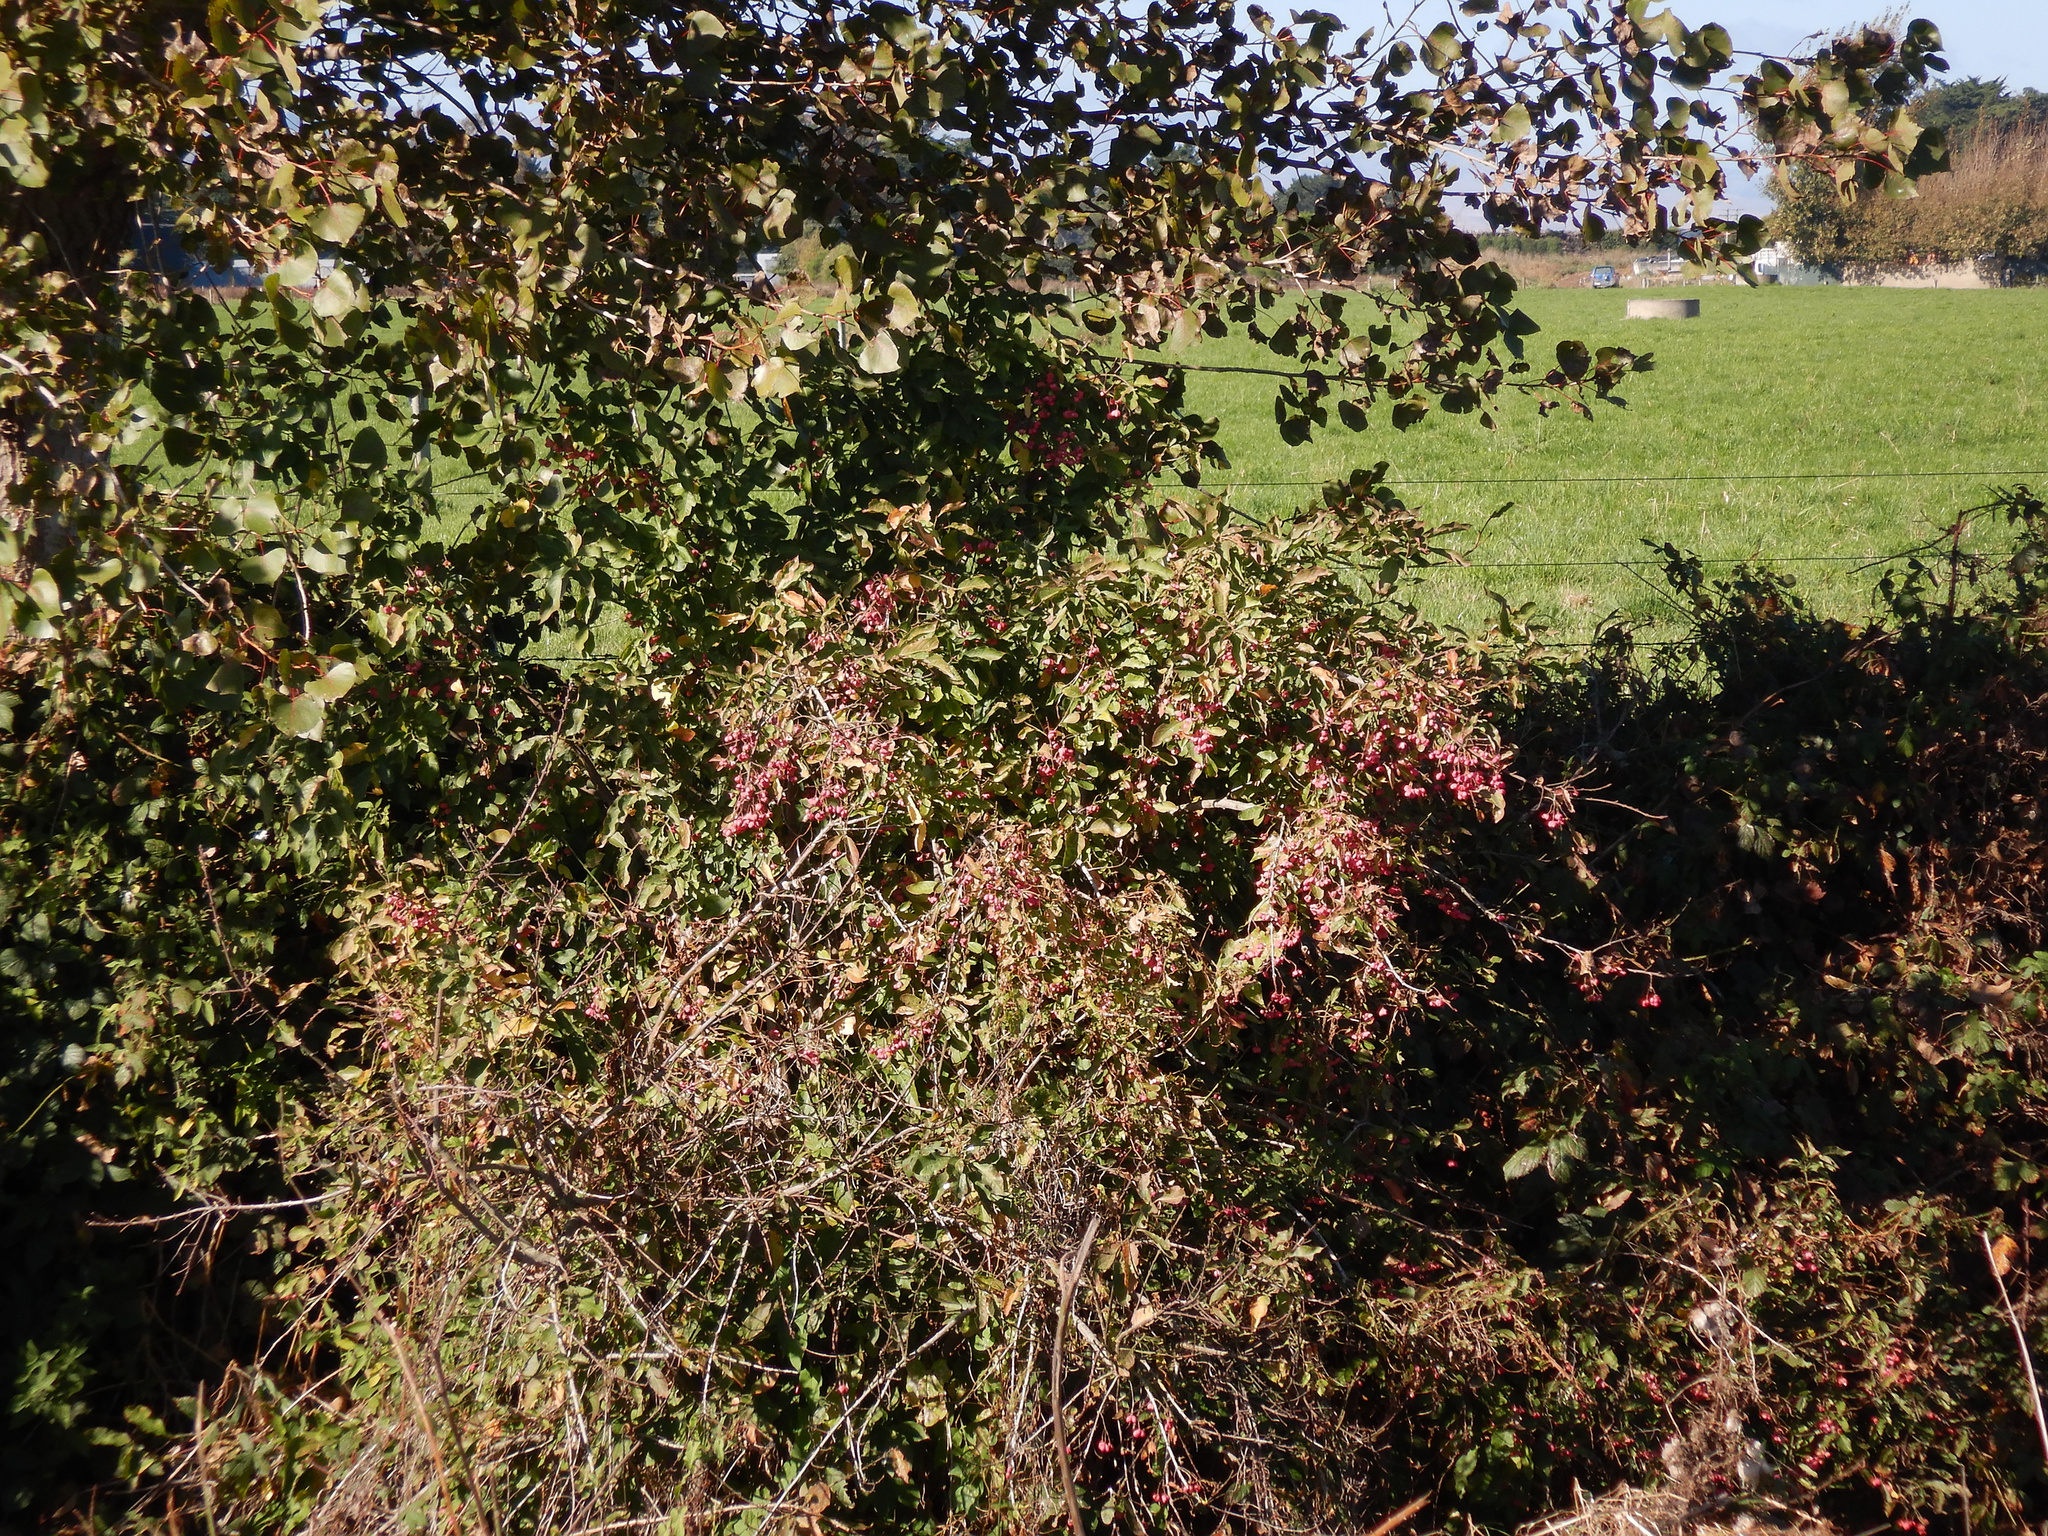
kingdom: Plantae
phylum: Tracheophyta
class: Magnoliopsida
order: Celastrales
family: Celastraceae
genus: Euonymus
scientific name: Euonymus europaeus
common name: Spindle
